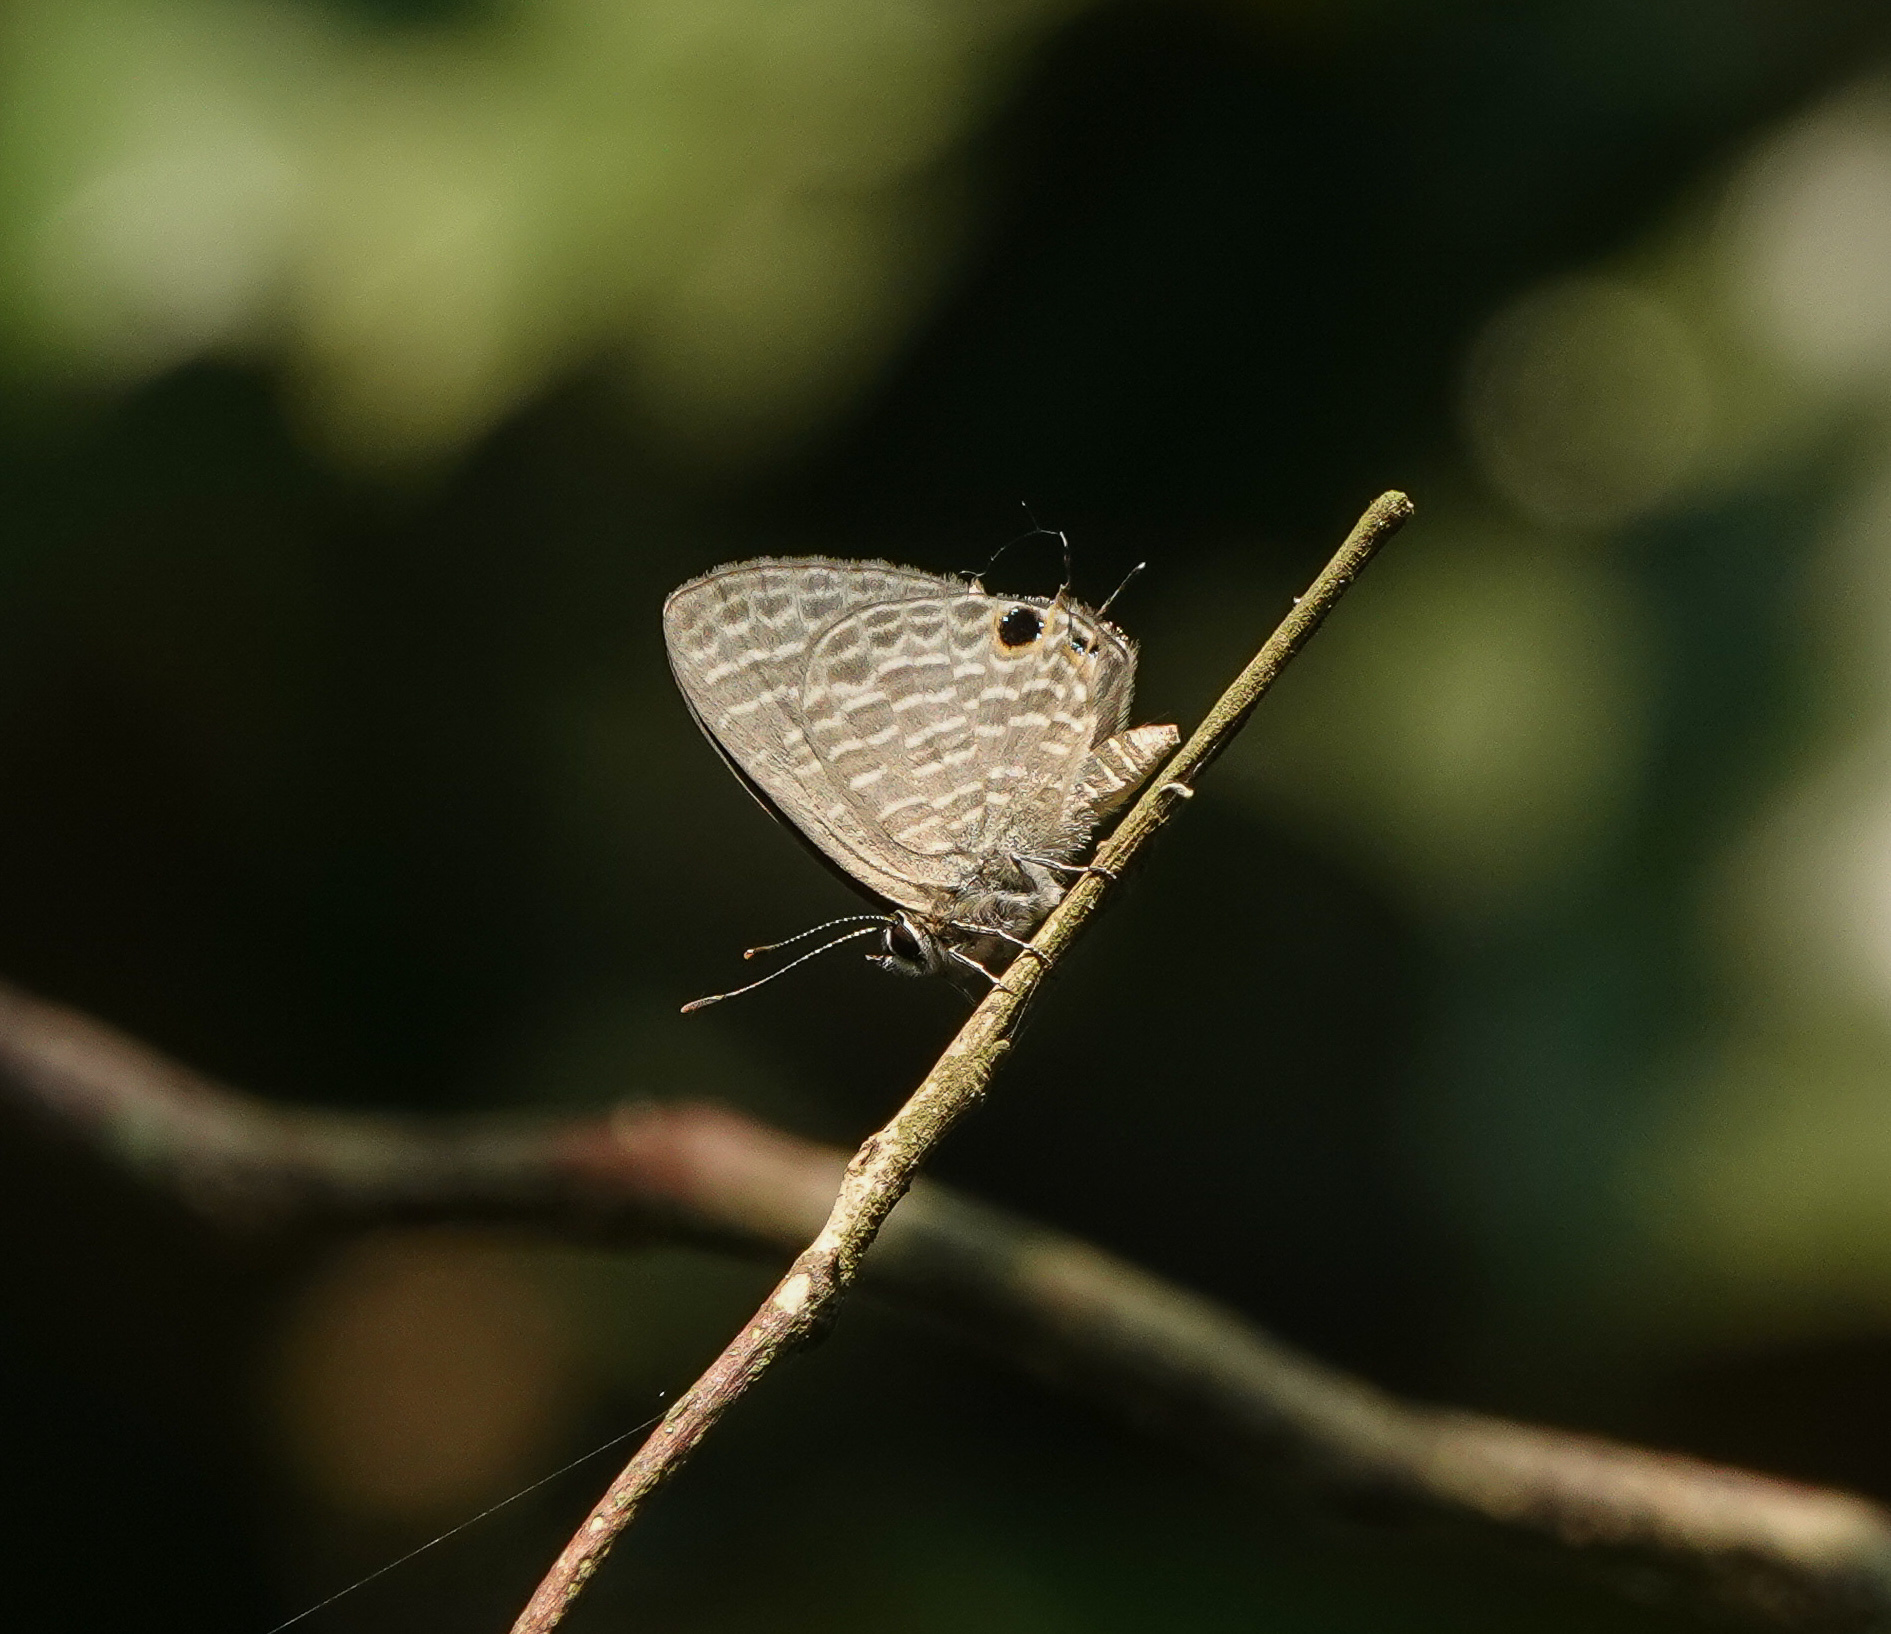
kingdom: Animalia
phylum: Arthropoda
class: Insecta
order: Lepidoptera
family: Lycaenidae
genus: Nacaduba
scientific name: Nacaduba kurava
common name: Transparent 6-line blue
